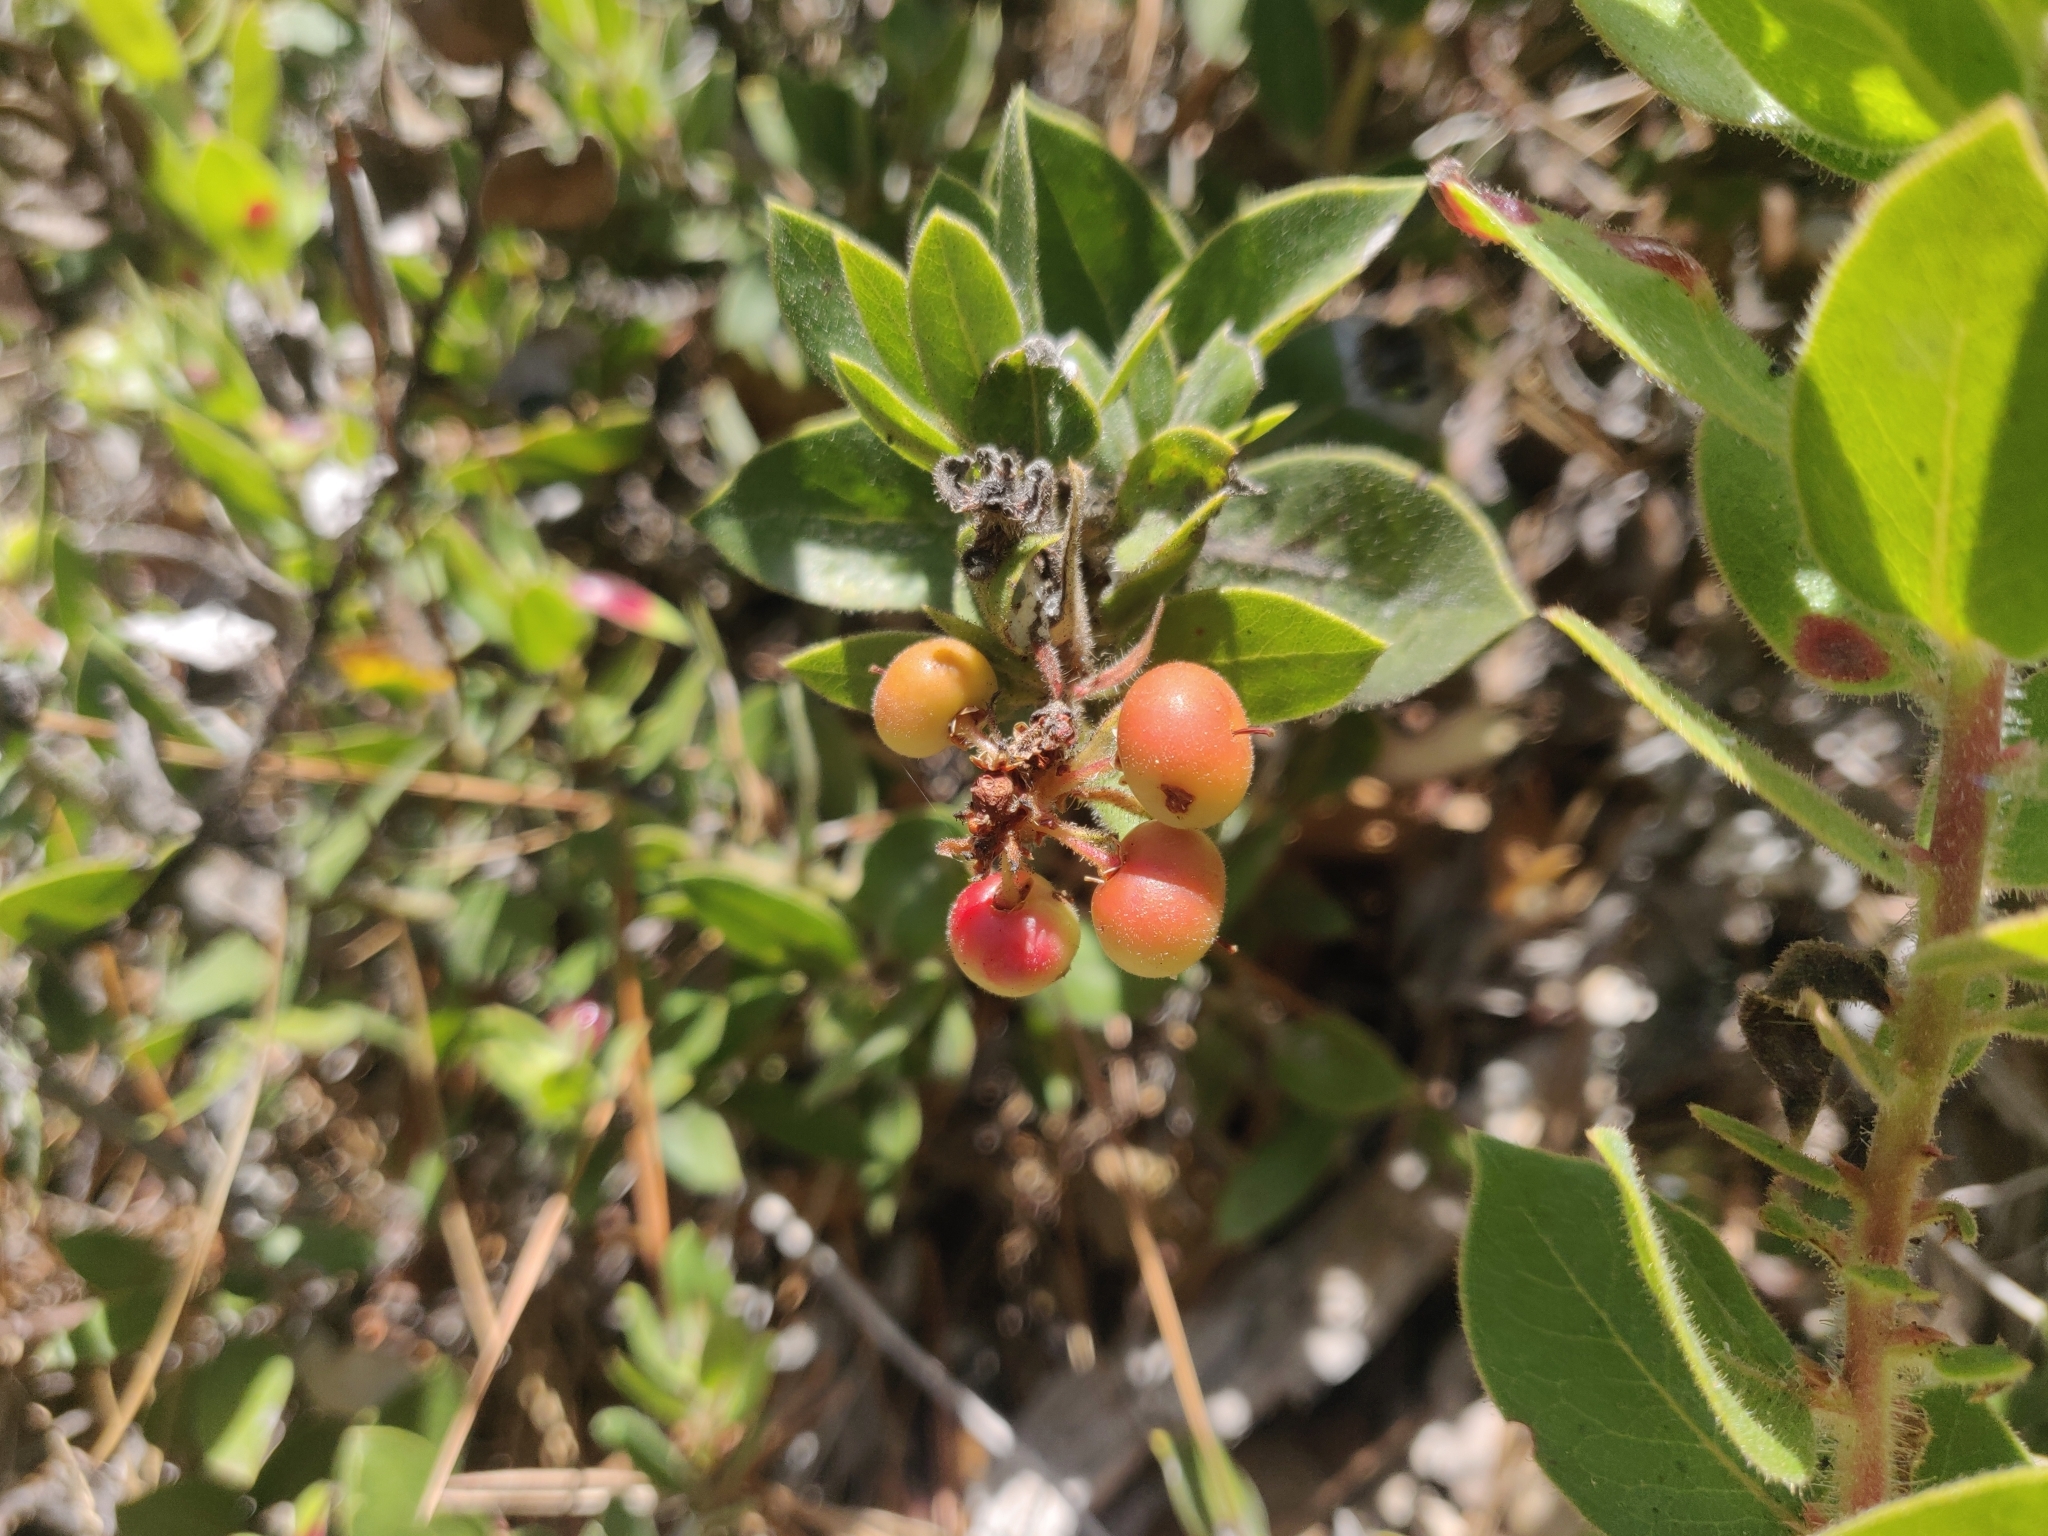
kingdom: Plantae
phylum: Tracheophyta
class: Magnoliopsida
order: Ericales
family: Ericaceae
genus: Arctostaphylos
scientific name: Arctostaphylos tomentosa
